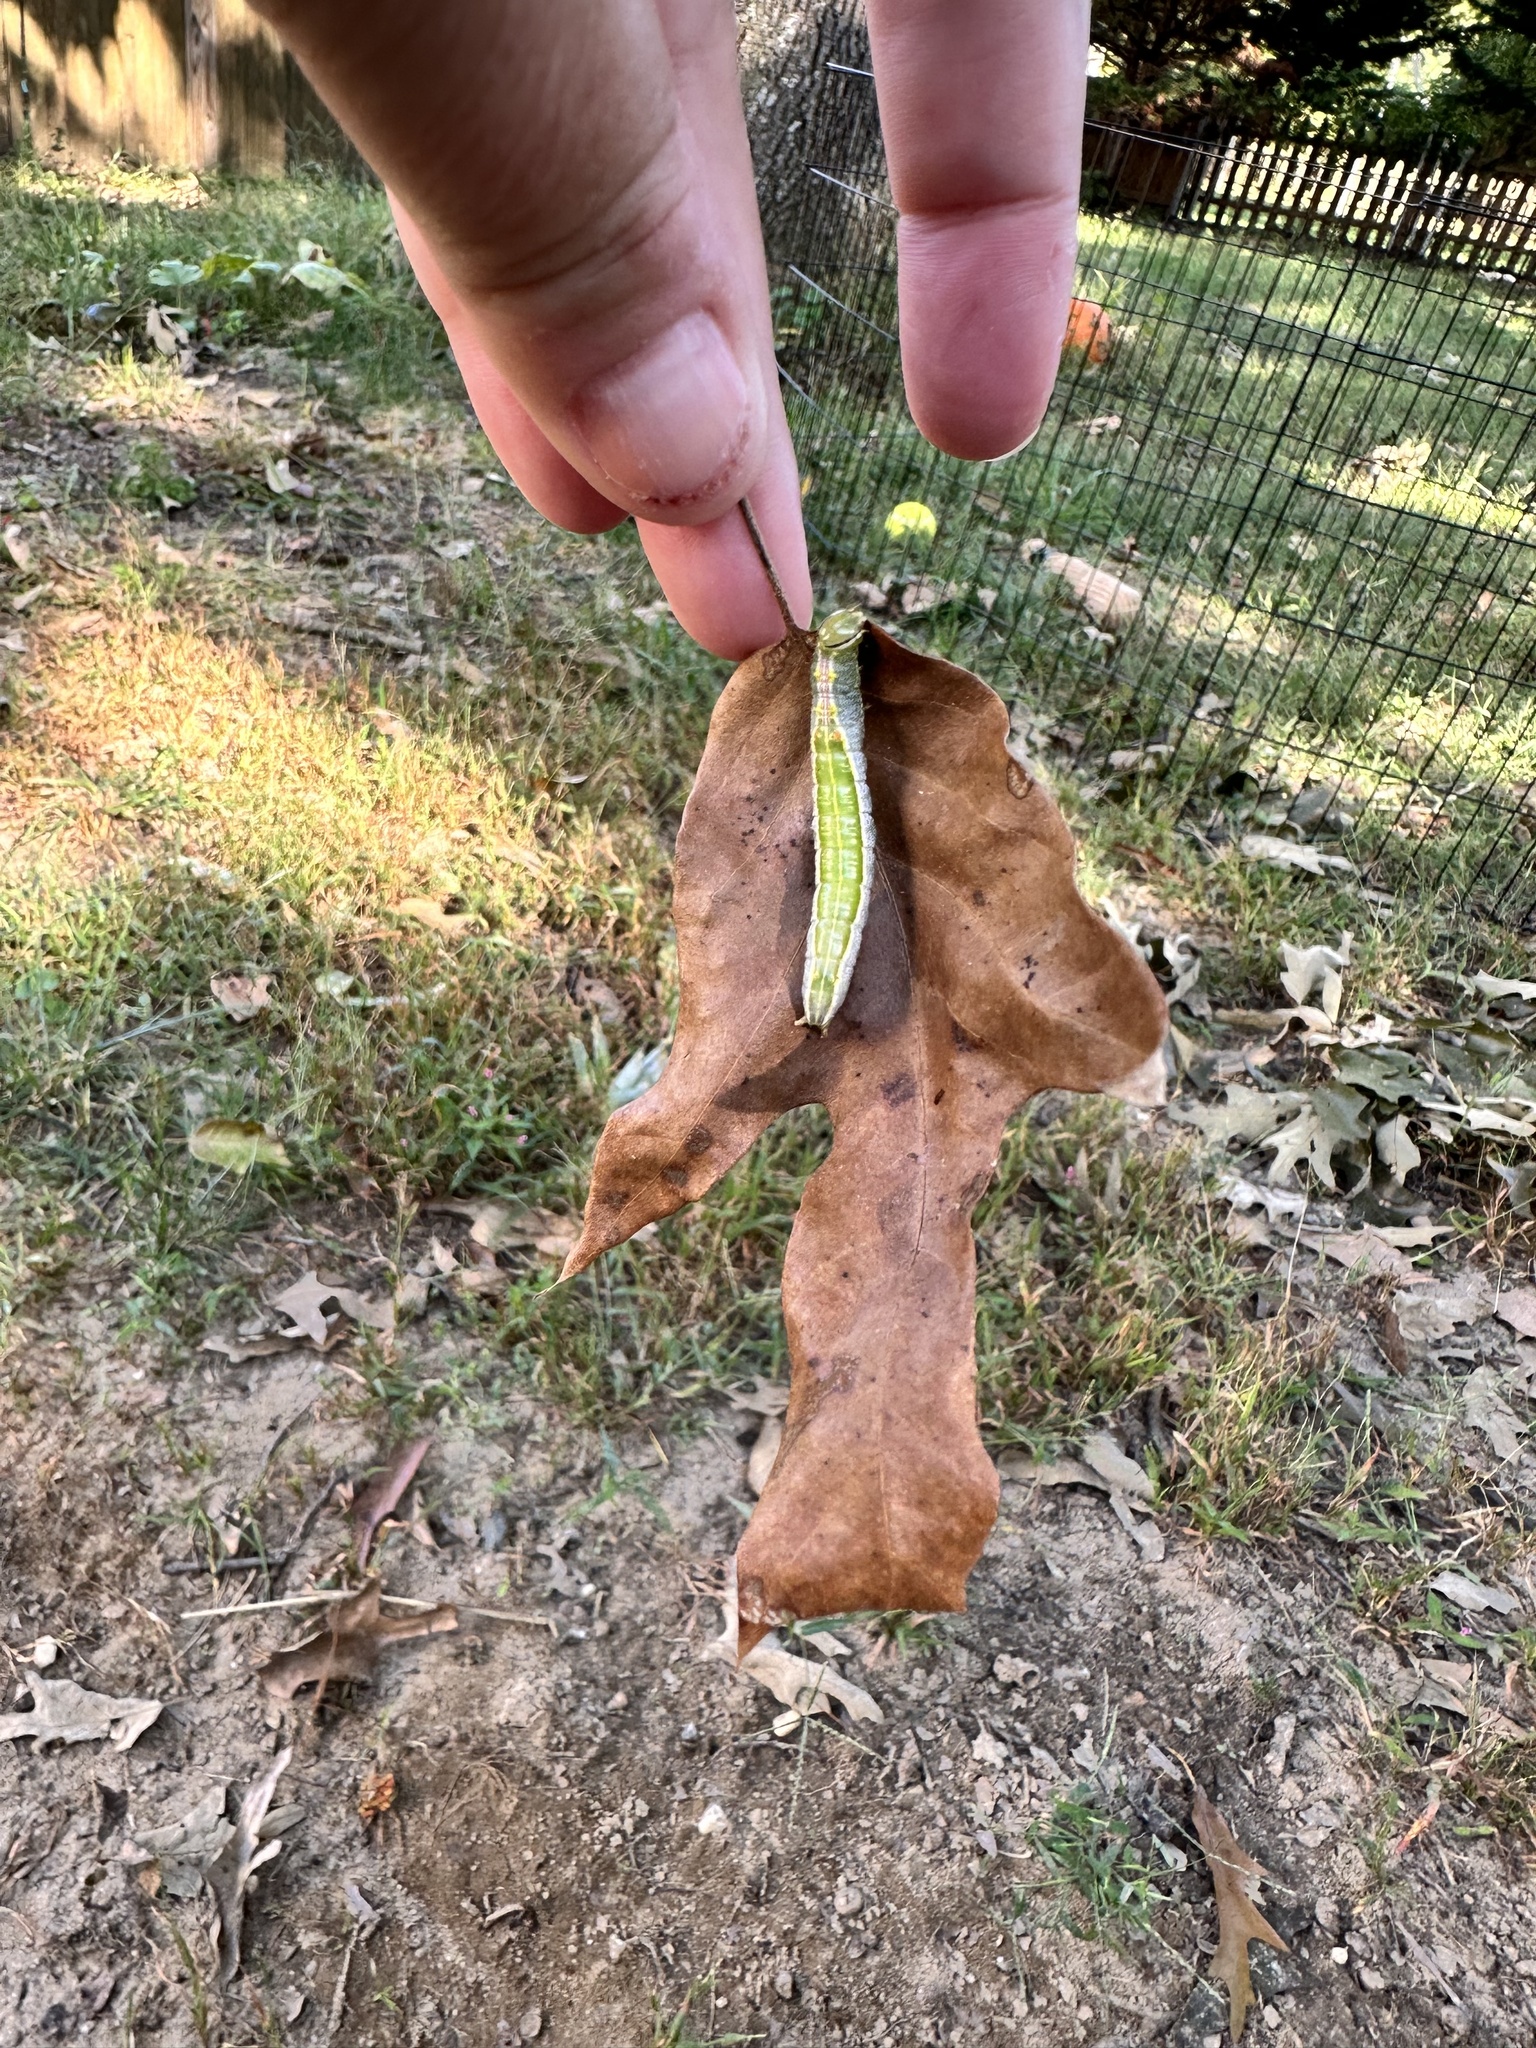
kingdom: Animalia
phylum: Arthropoda
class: Insecta
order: Lepidoptera
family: Notodontidae
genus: Lochmaeus
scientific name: Lochmaeus manteo
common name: Variable oakleaf caterpillar moth
